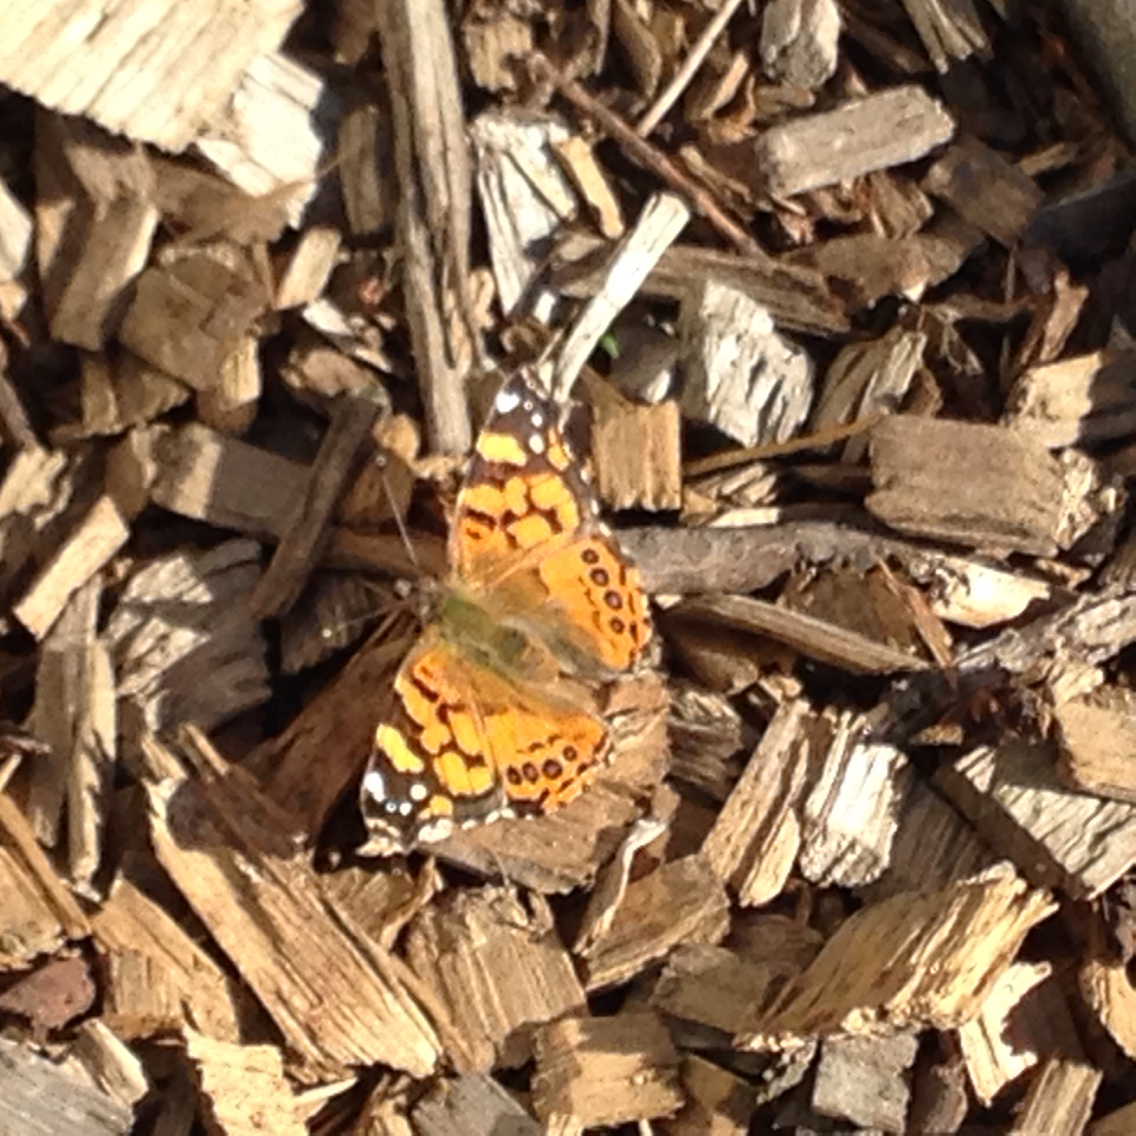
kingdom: Animalia
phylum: Arthropoda
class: Insecta
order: Lepidoptera
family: Nymphalidae
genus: Vanessa
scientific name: Vanessa annabella
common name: West coast lady
